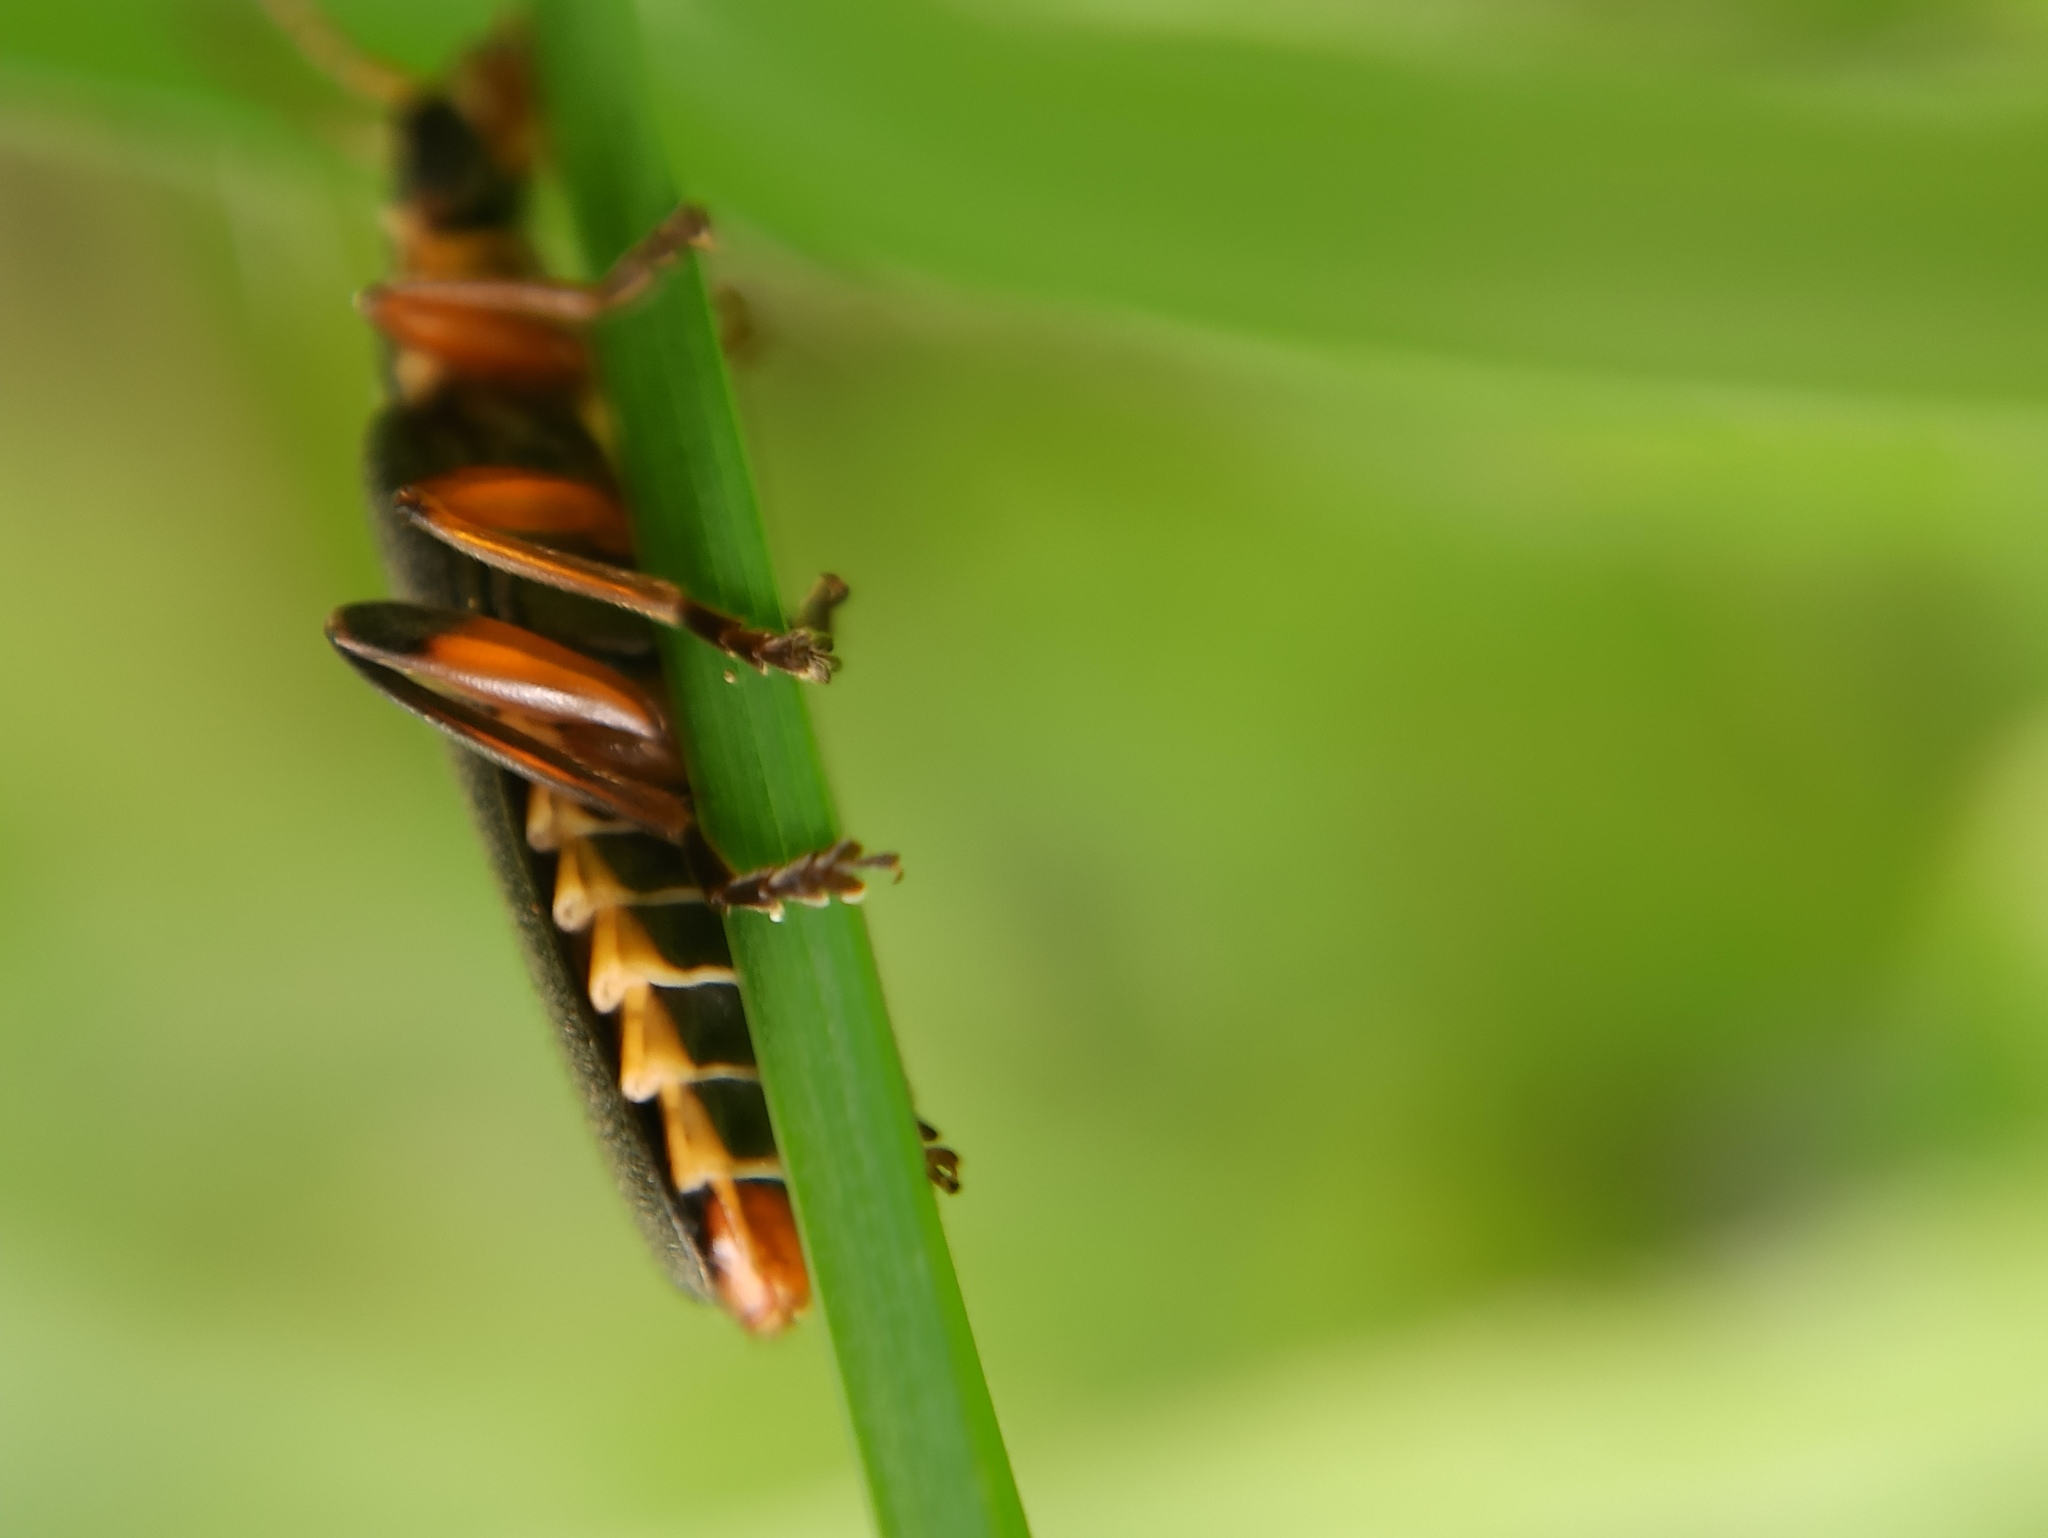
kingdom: Animalia
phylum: Arthropoda
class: Insecta
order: Coleoptera
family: Cantharidae
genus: Cantharis
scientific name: Cantharis nigricans
